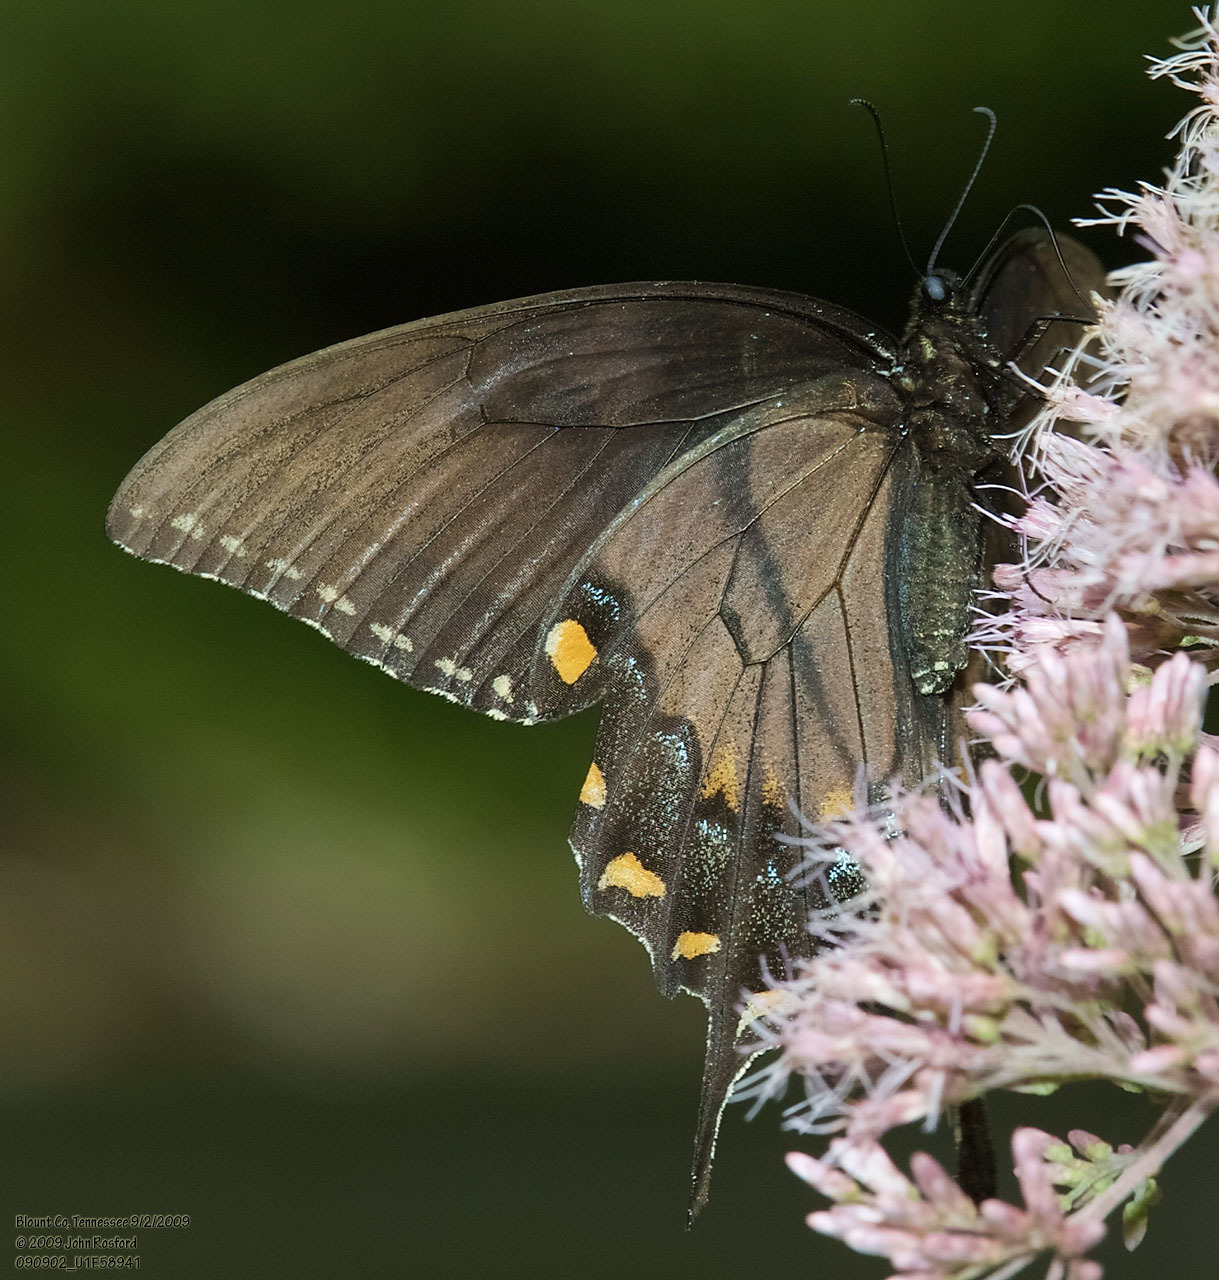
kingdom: Animalia
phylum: Arthropoda
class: Insecta
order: Lepidoptera
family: Papilionidae
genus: Papilio
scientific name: Papilio glaucus
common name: Tiger swallowtail
